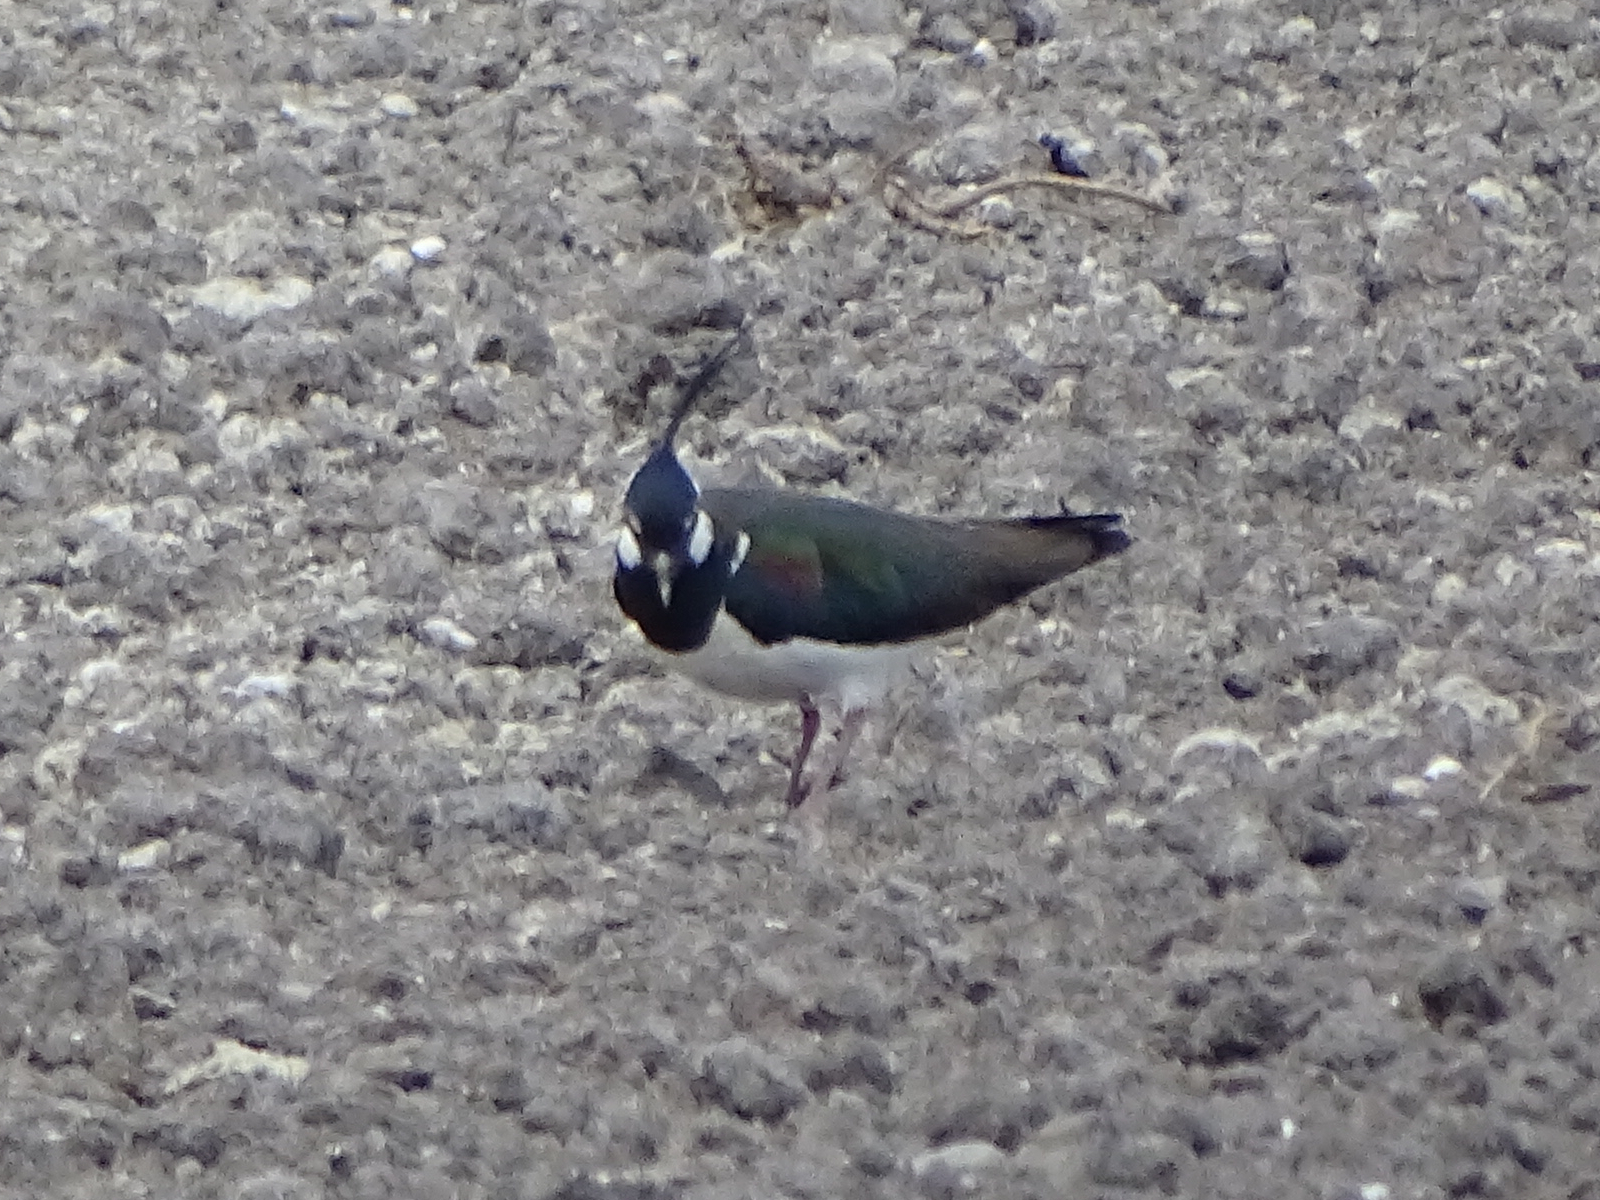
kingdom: Animalia
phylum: Chordata
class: Aves
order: Charadriiformes
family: Charadriidae
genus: Vanellus
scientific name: Vanellus vanellus
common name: Northern lapwing
